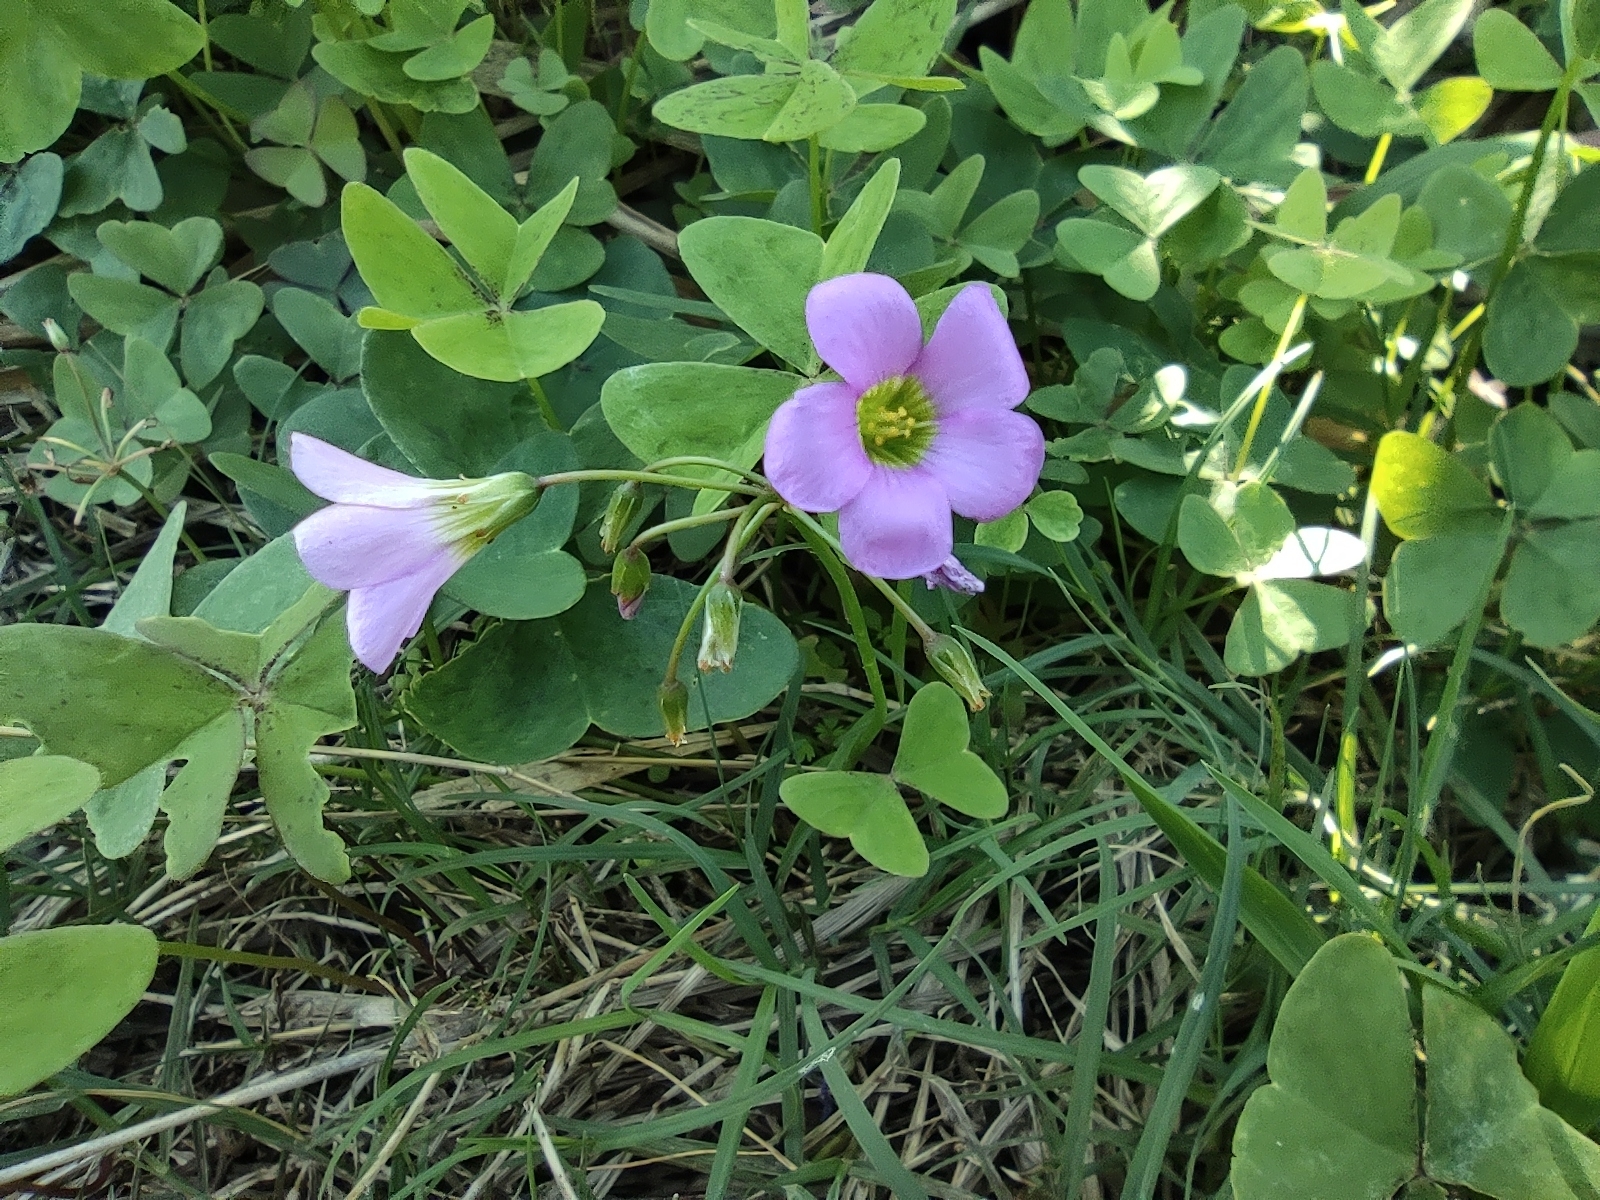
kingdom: Plantae
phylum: Tracheophyta
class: Magnoliopsida
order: Oxalidales
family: Oxalidaceae
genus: Oxalis
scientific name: Oxalis latifolia
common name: Garden pink-sorrel
